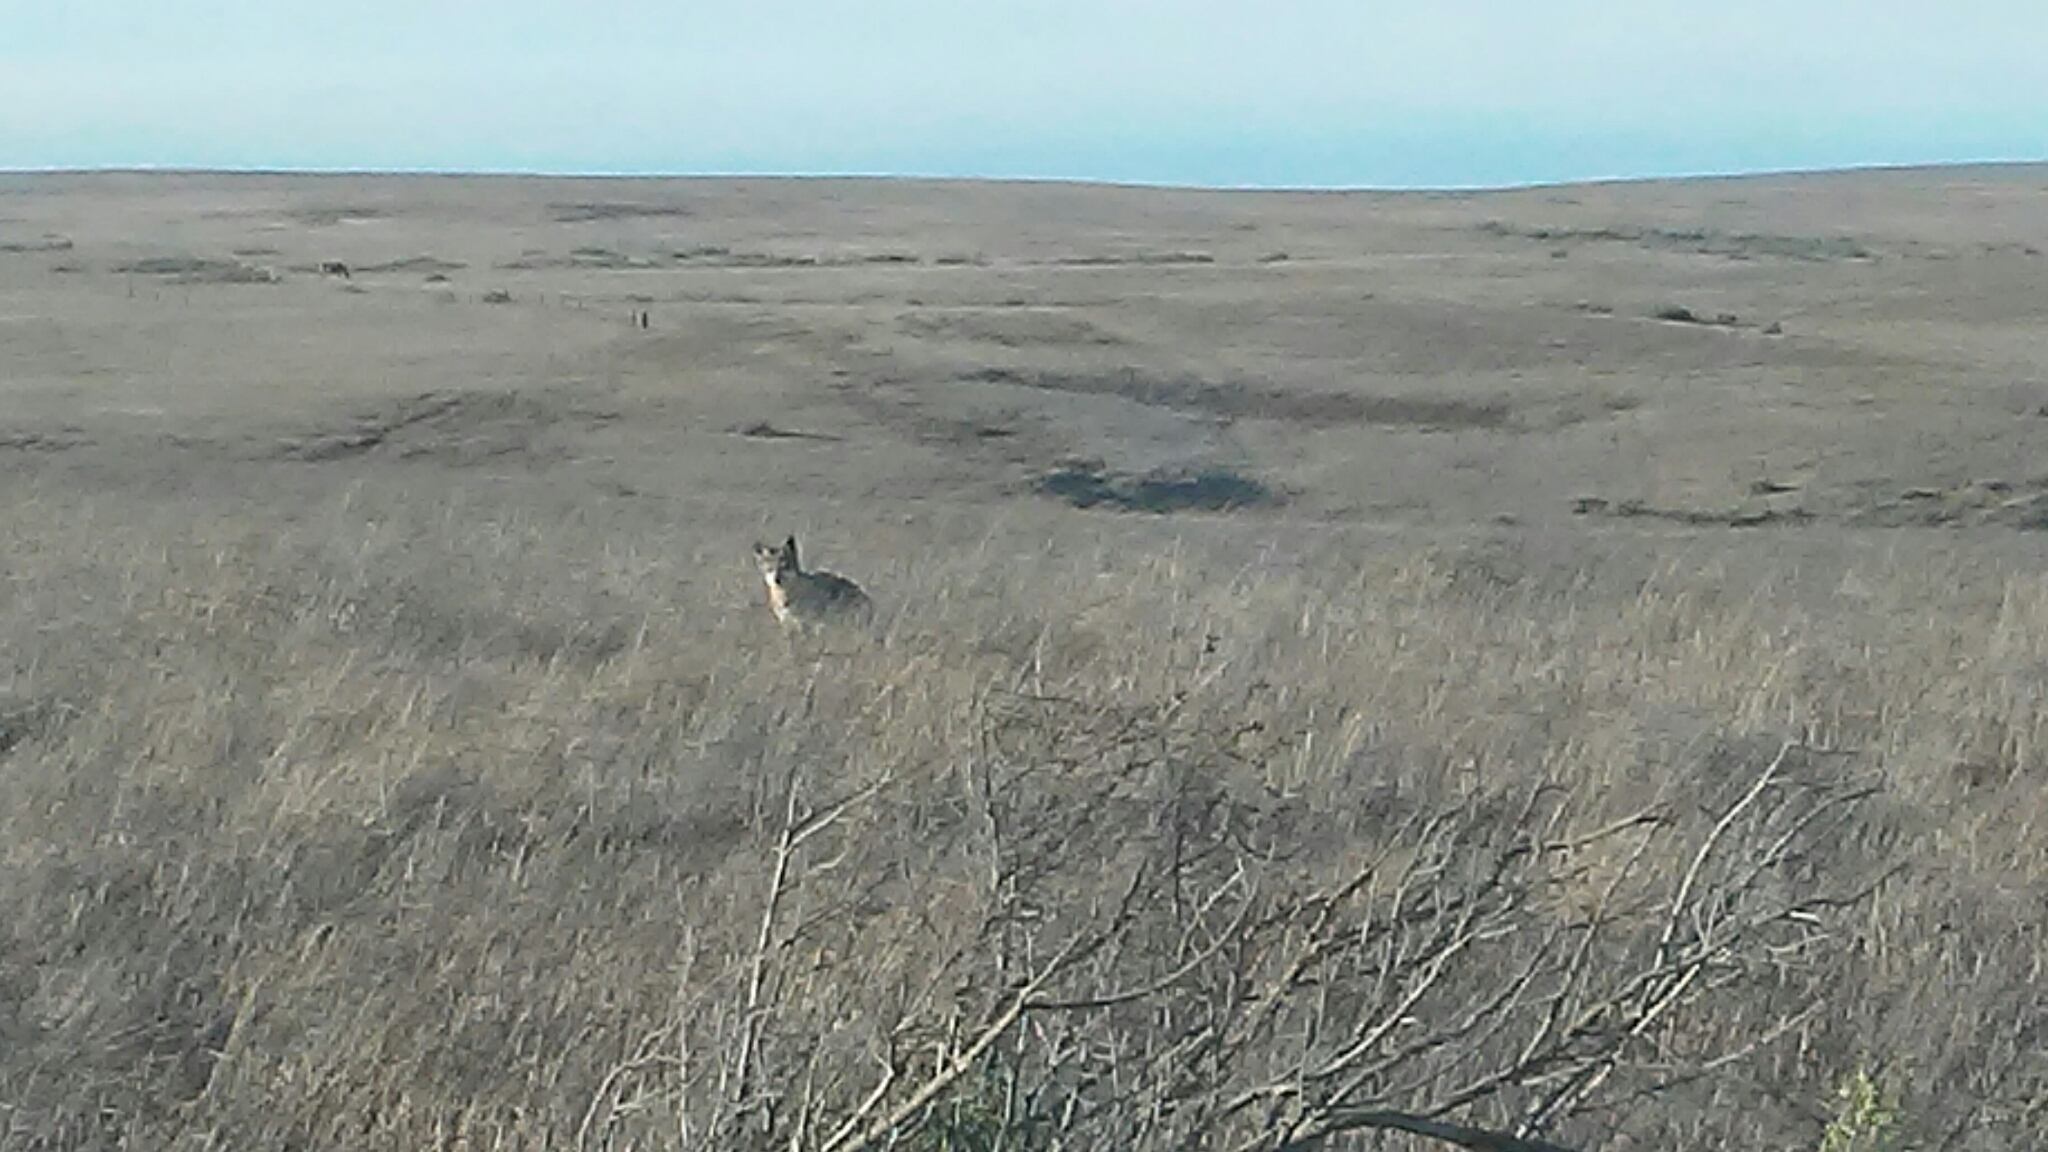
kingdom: Animalia
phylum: Chordata
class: Mammalia
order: Carnivora
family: Canidae
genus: Urocyon
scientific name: Urocyon littoralis
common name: Island gray fox
